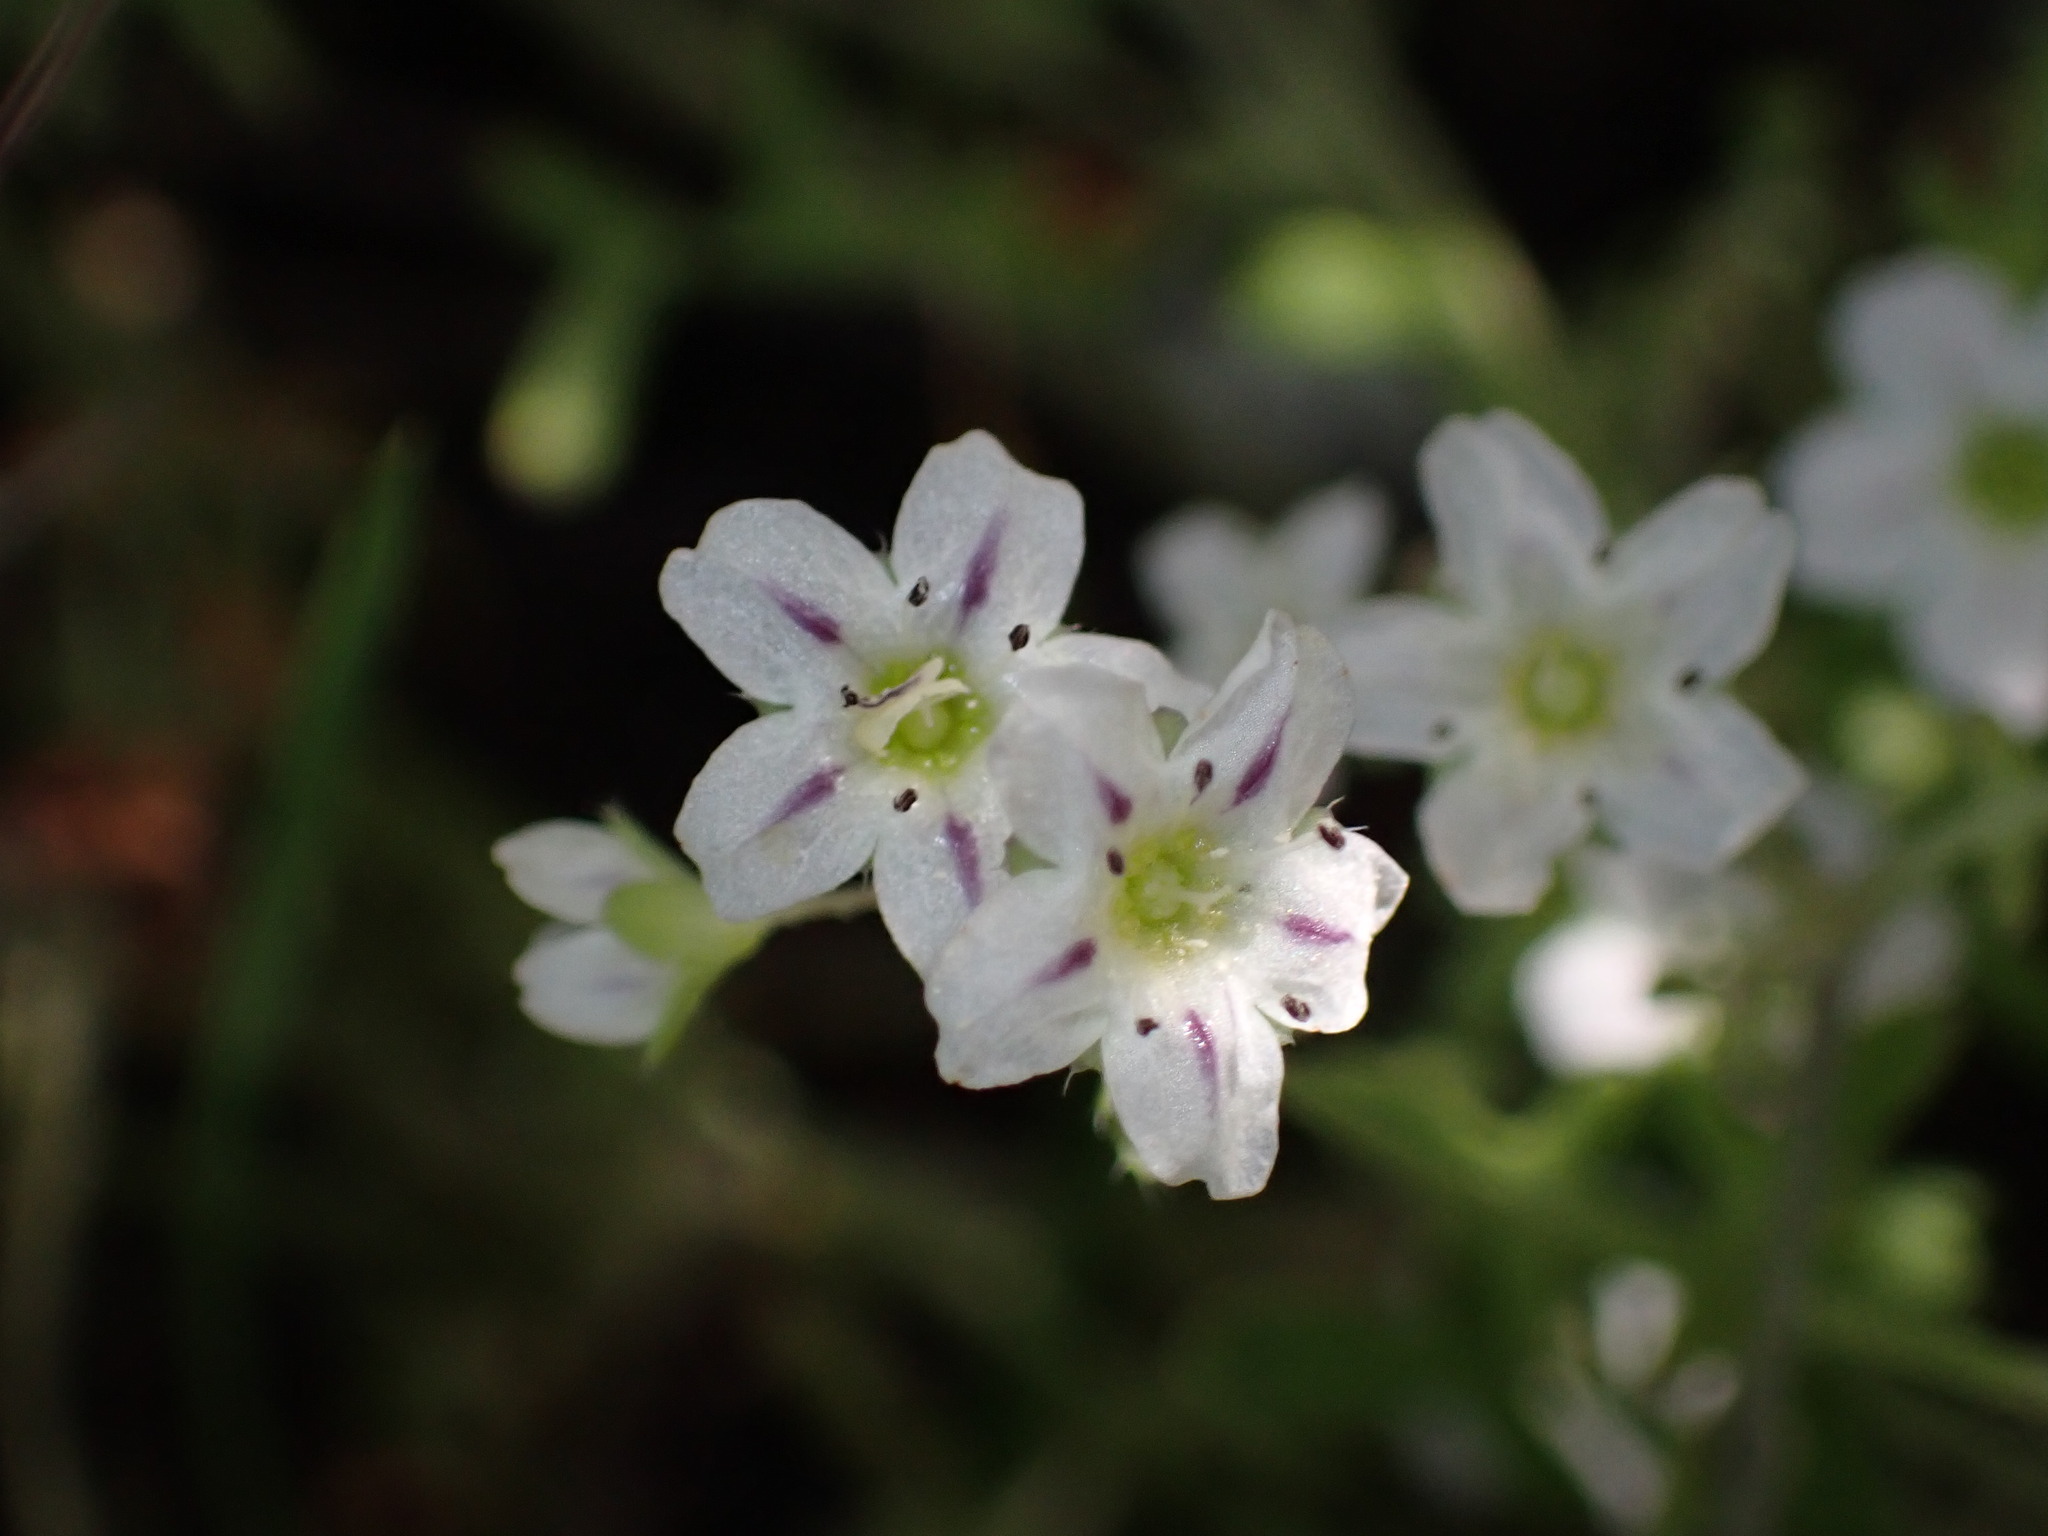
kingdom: Plantae
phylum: Tracheophyta
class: Magnoliopsida
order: Boraginales
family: Hydrophyllaceae
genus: Pholistoma
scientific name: Pholistoma membranaceum
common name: White fiesta-flower
